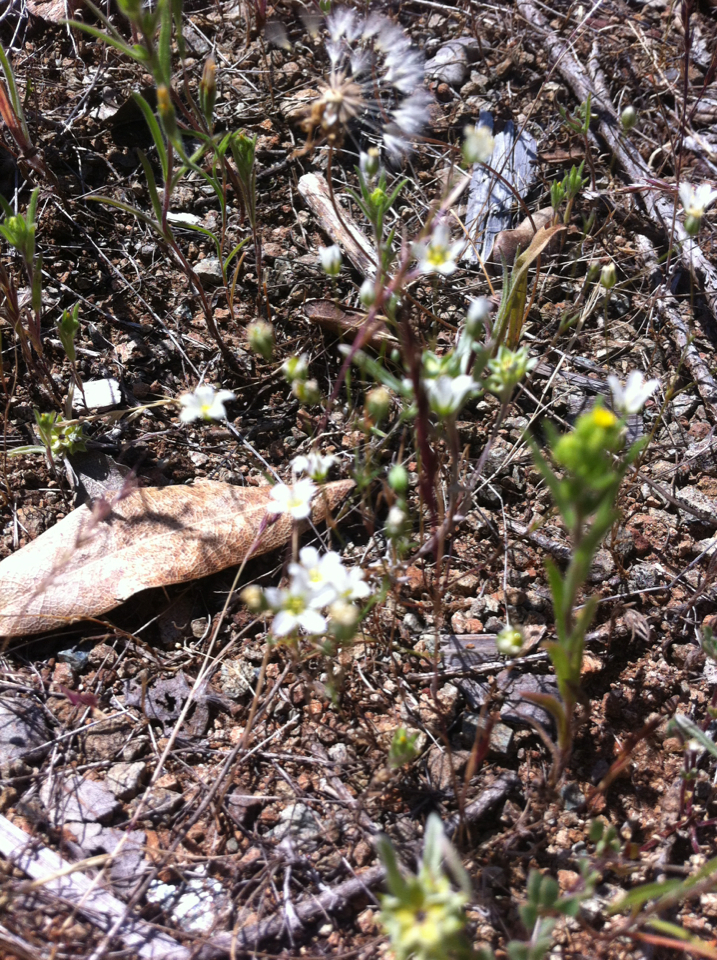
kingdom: Plantae
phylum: Tracheophyta
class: Magnoliopsida
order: Caryophyllales
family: Caryophyllaceae
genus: Sabulina
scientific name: Sabulina douglasii
